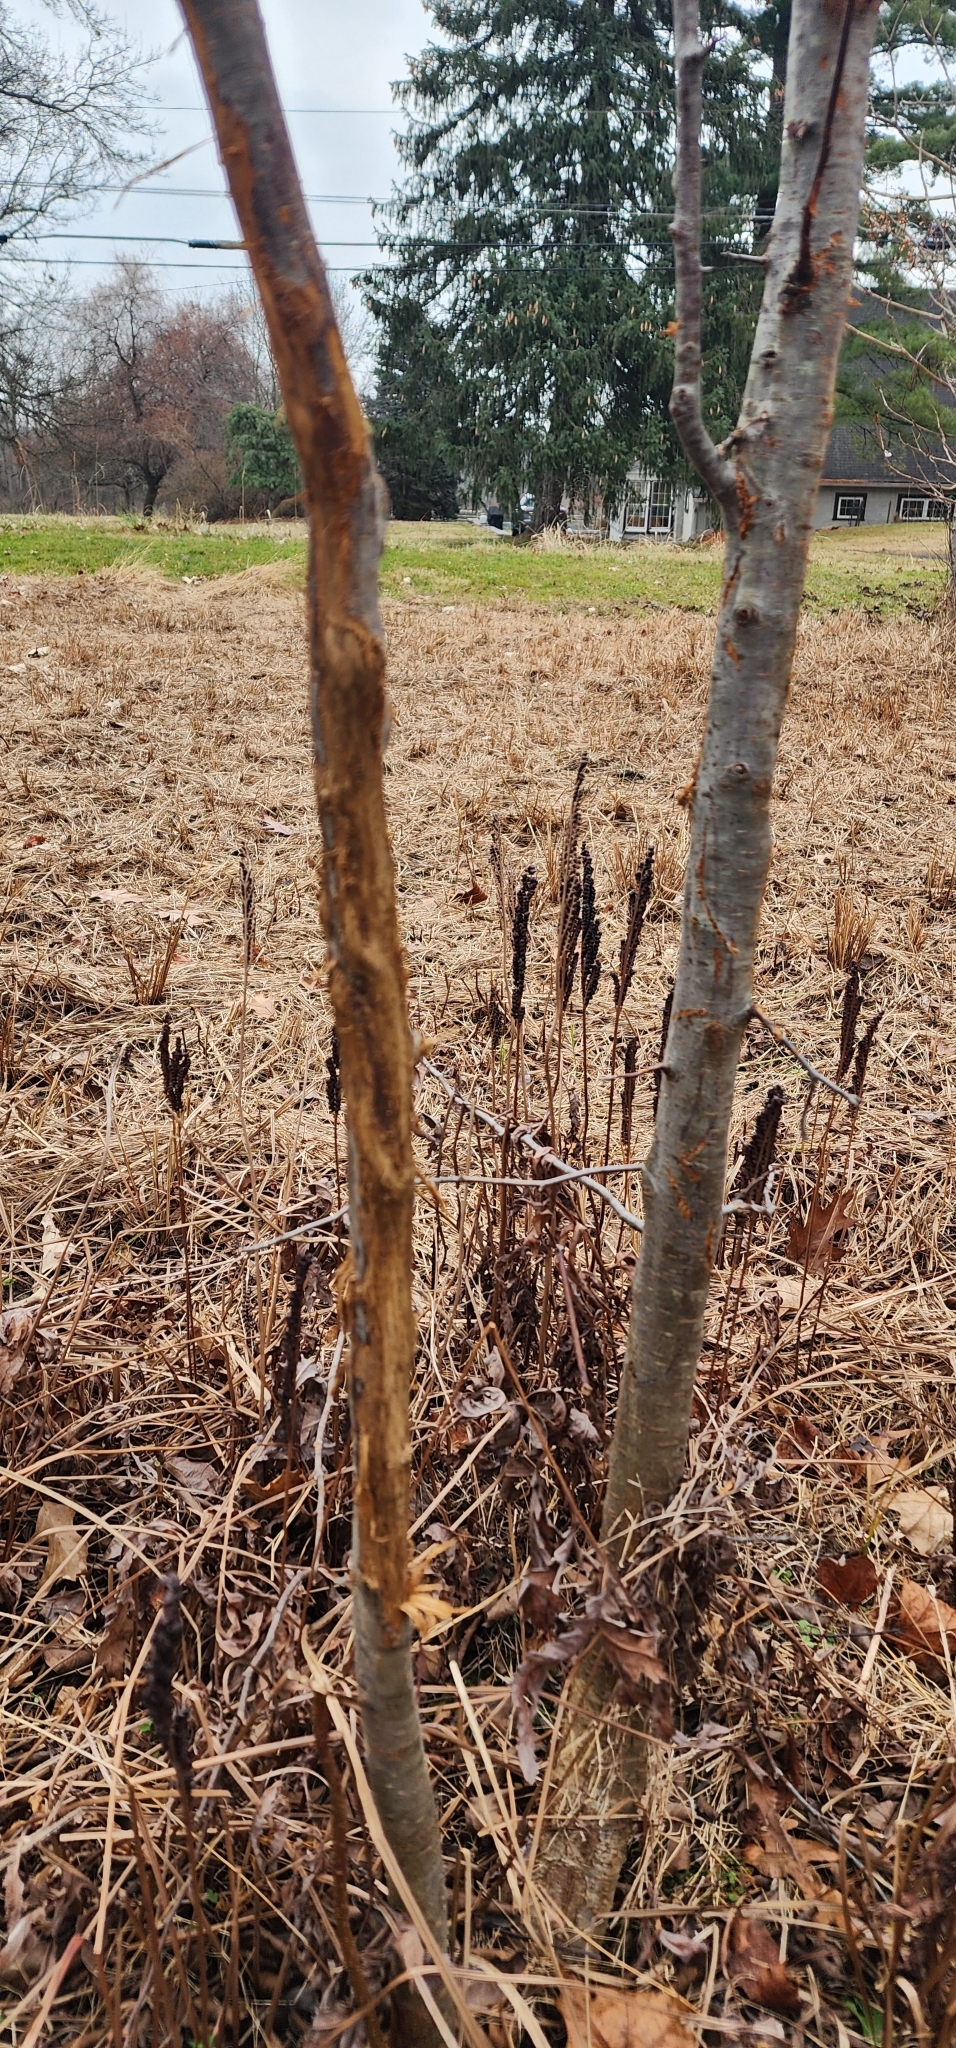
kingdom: Animalia
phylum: Chordata
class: Mammalia
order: Artiodactyla
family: Cervidae
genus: Odocoileus
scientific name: Odocoileus virginianus
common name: White-tailed deer
